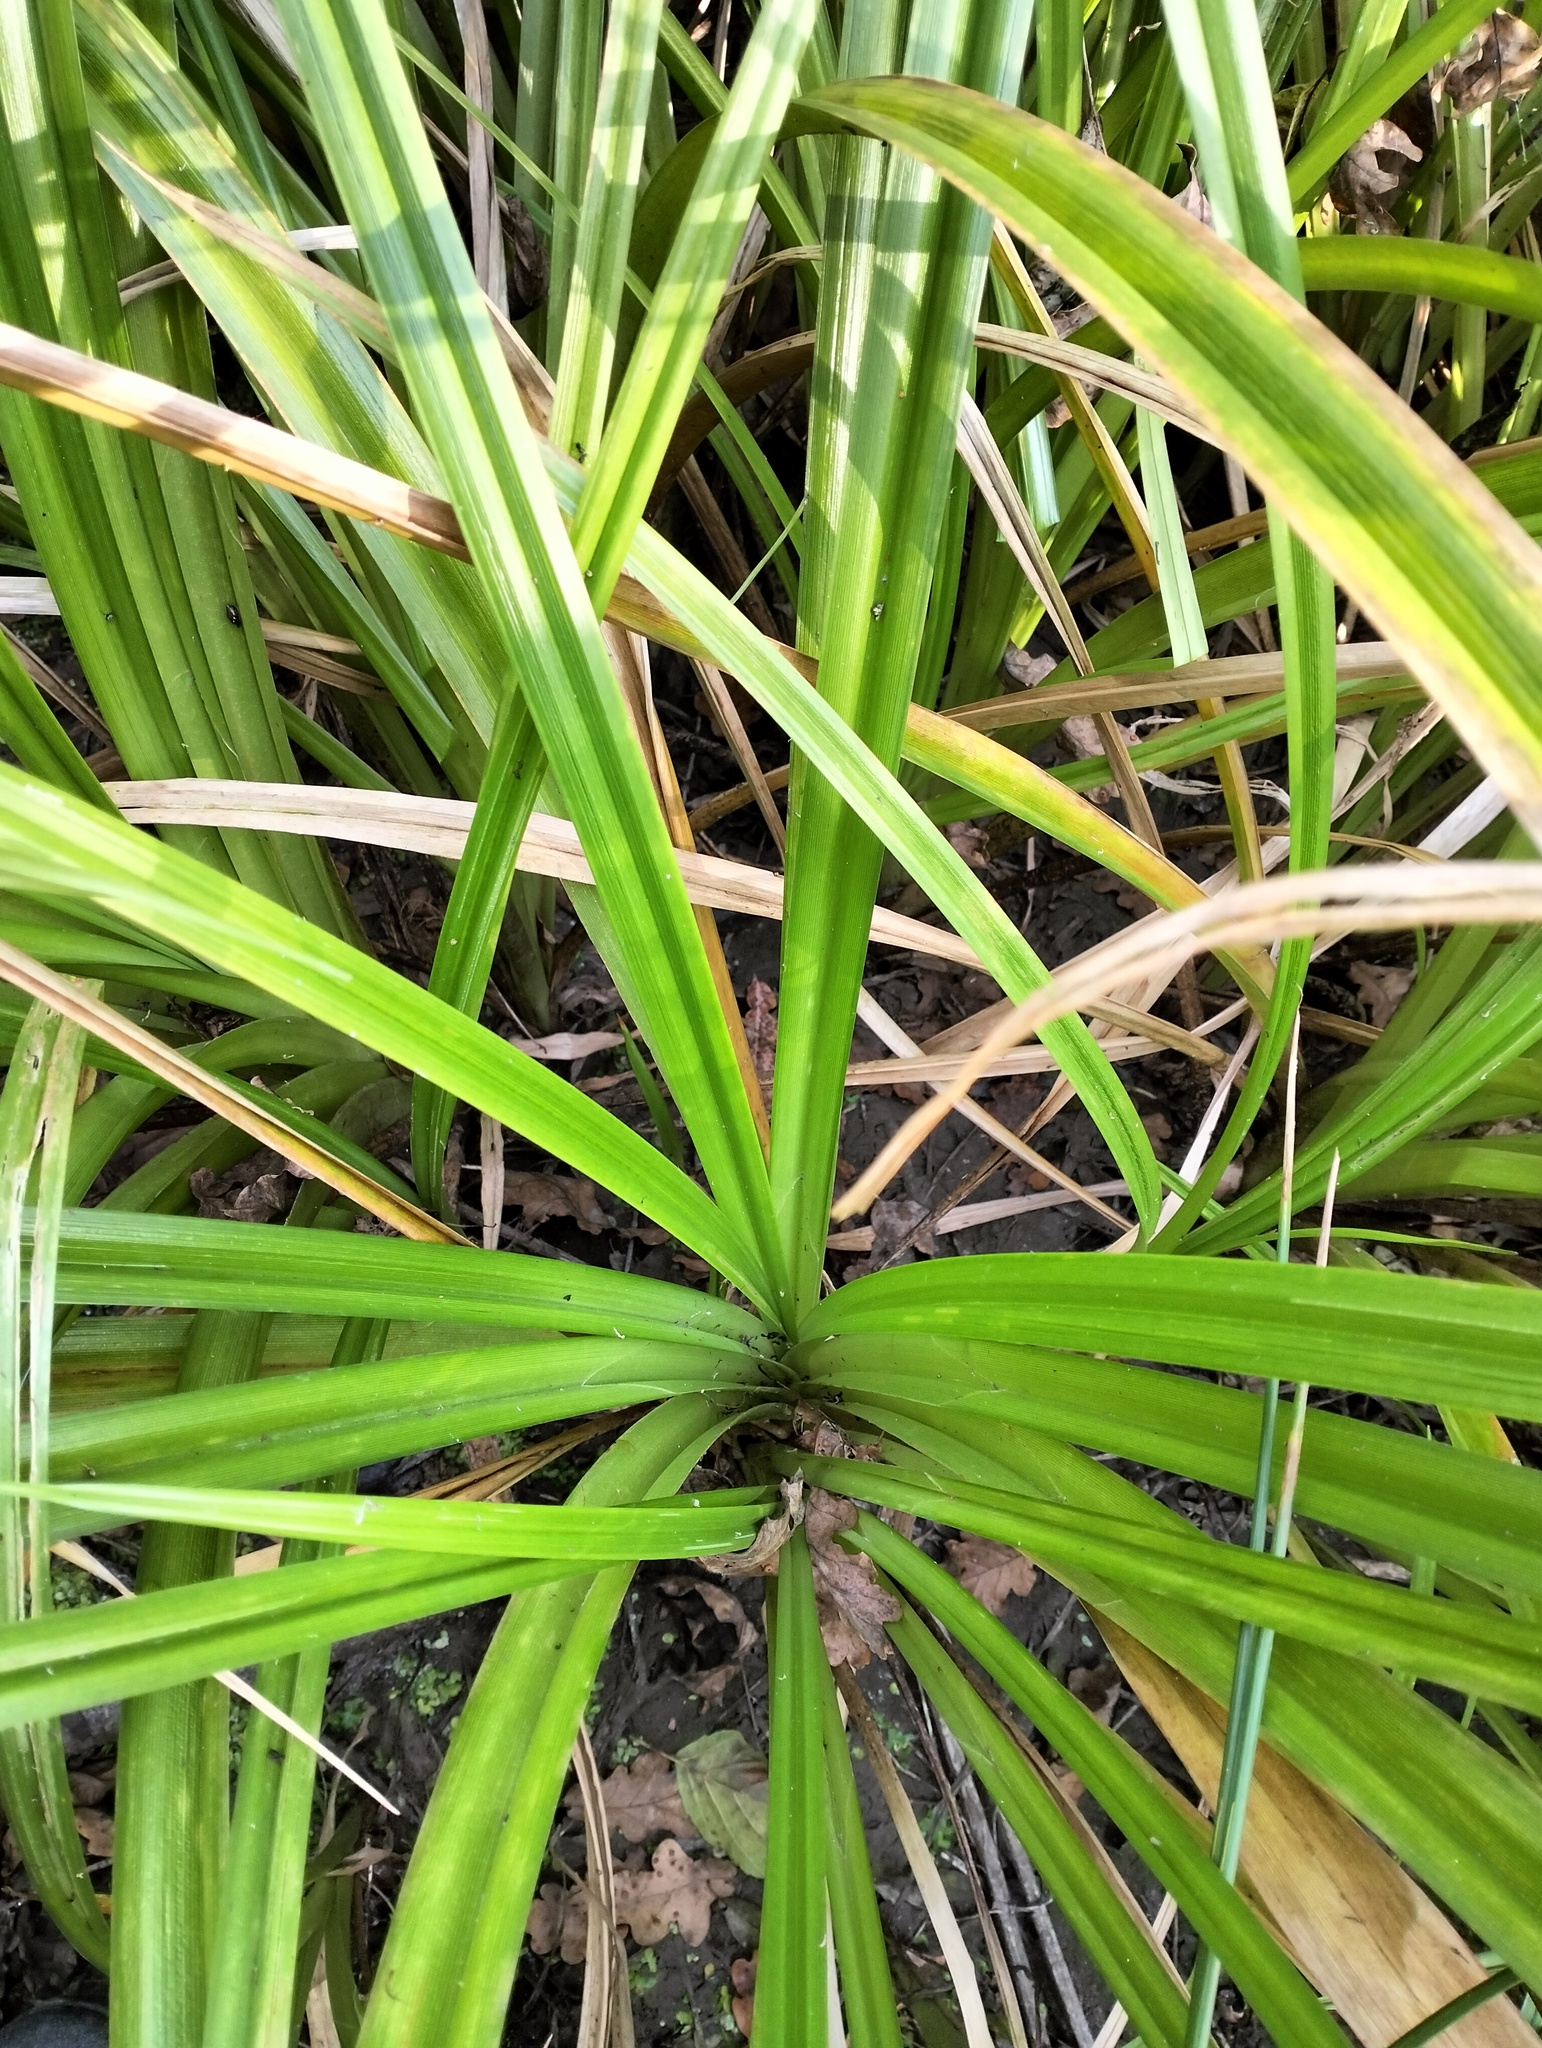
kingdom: Plantae
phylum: Tracheophyta
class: Liliopsida
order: Poales
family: Cyperaceae
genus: Scirpus
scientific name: Scirpus sylvaticus
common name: Wood club-rush
